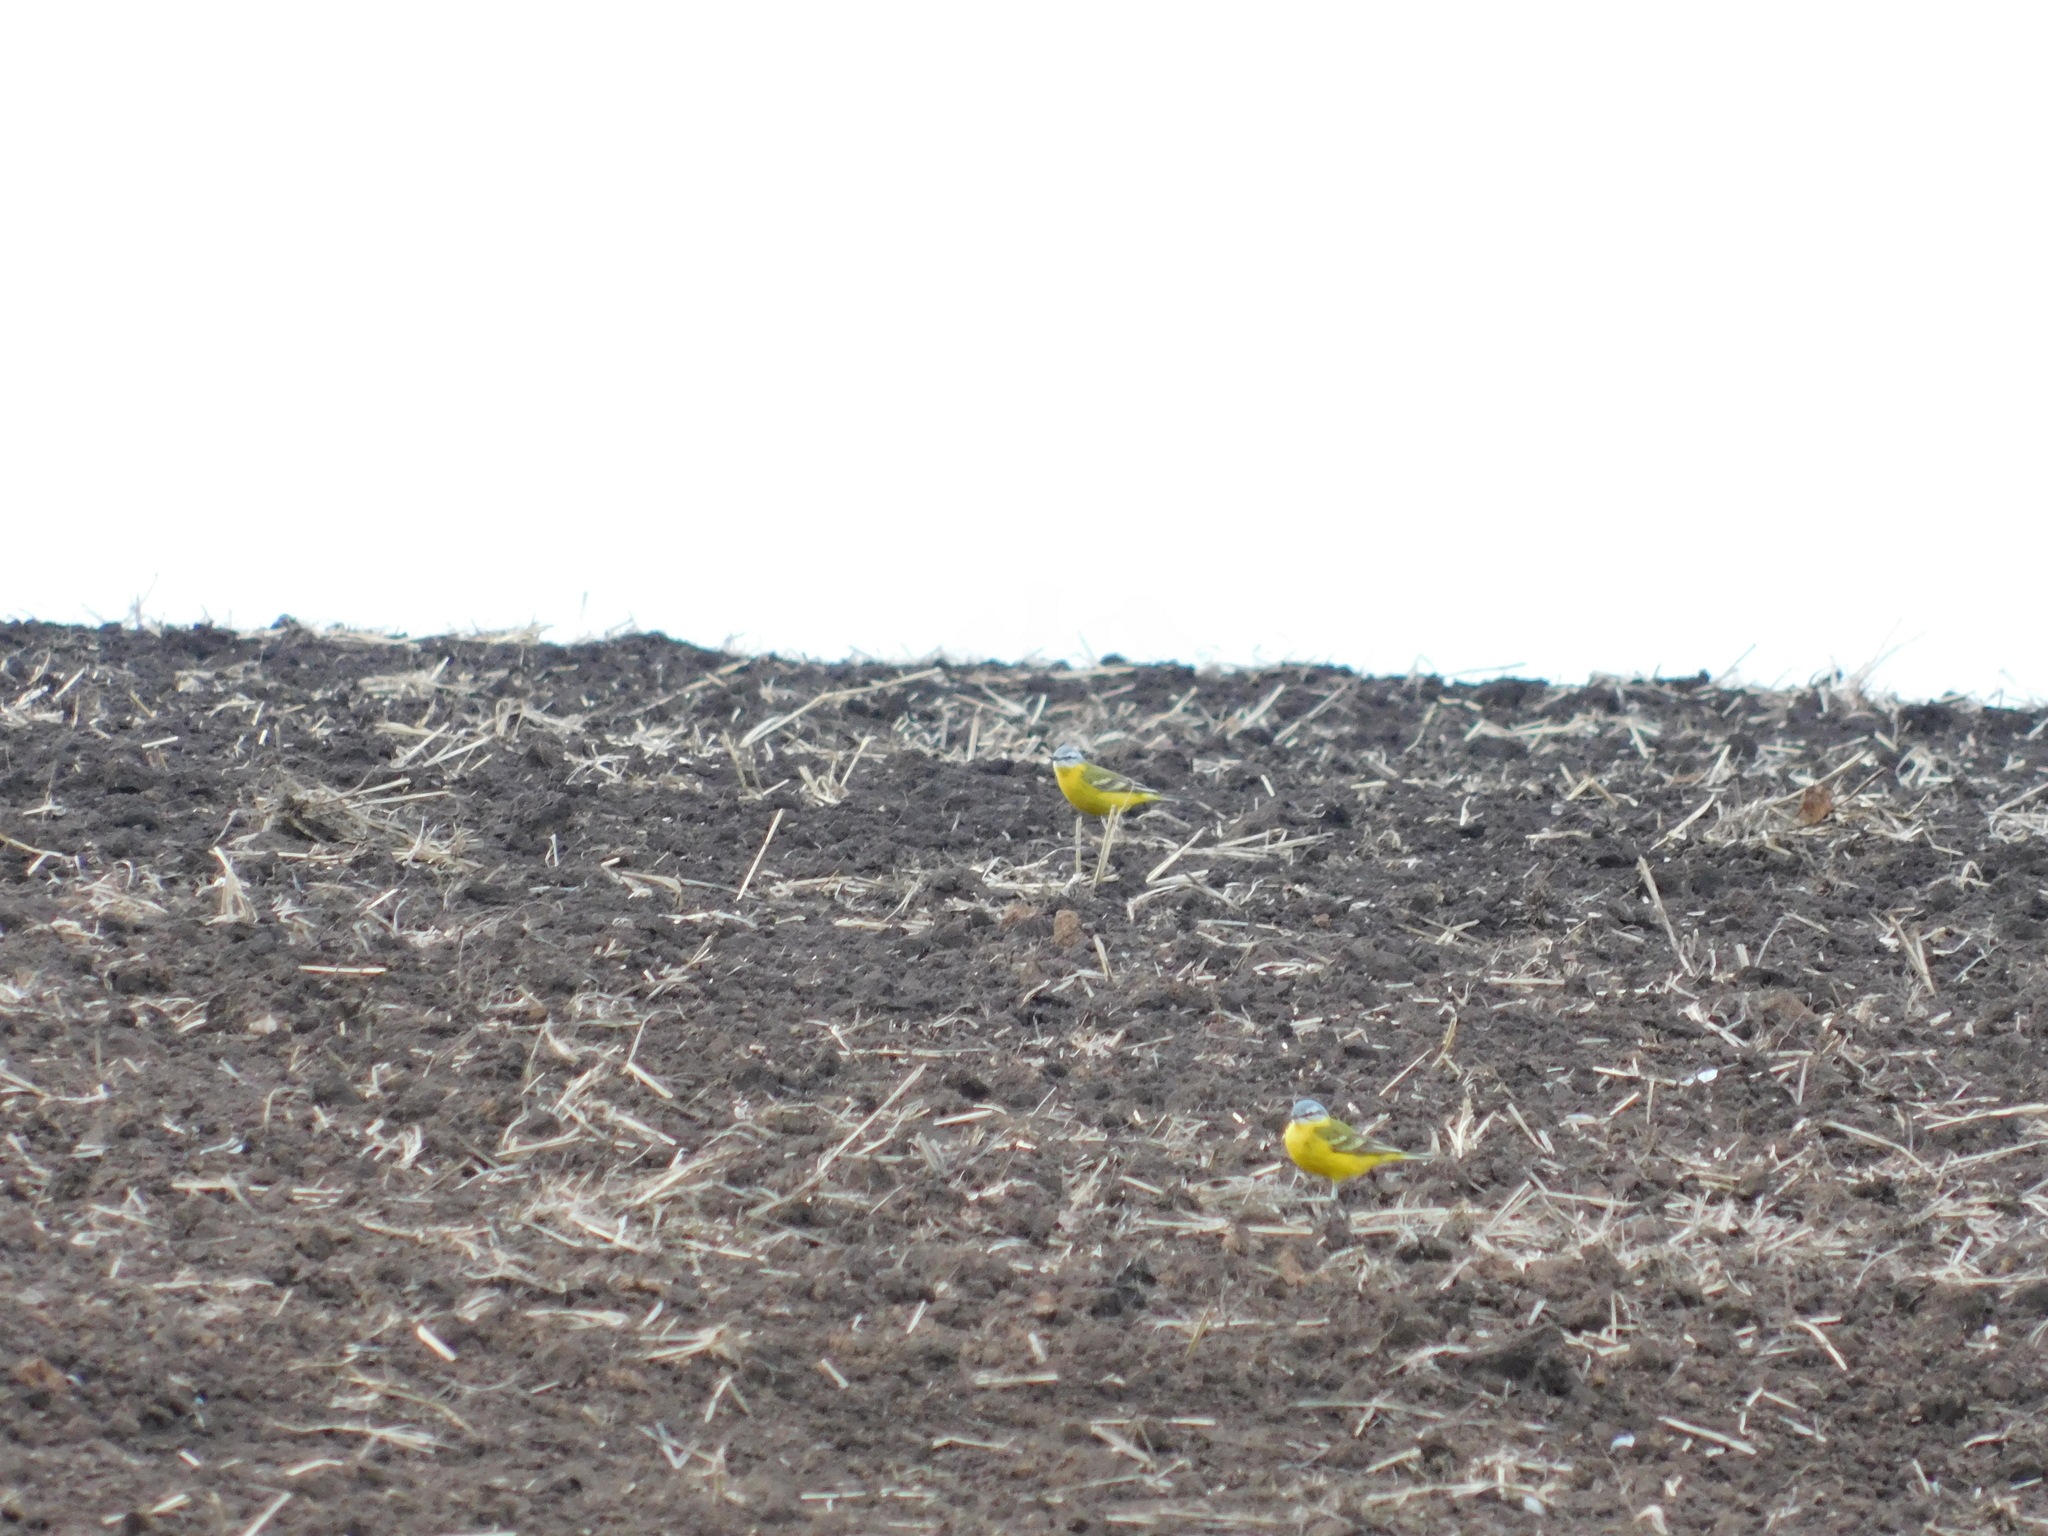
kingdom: Animalia
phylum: Chordata
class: Aves
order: Passeriformes
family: Motacillidae
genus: Motacilla
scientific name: Motacilla flava
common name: Western yellow wagtail
